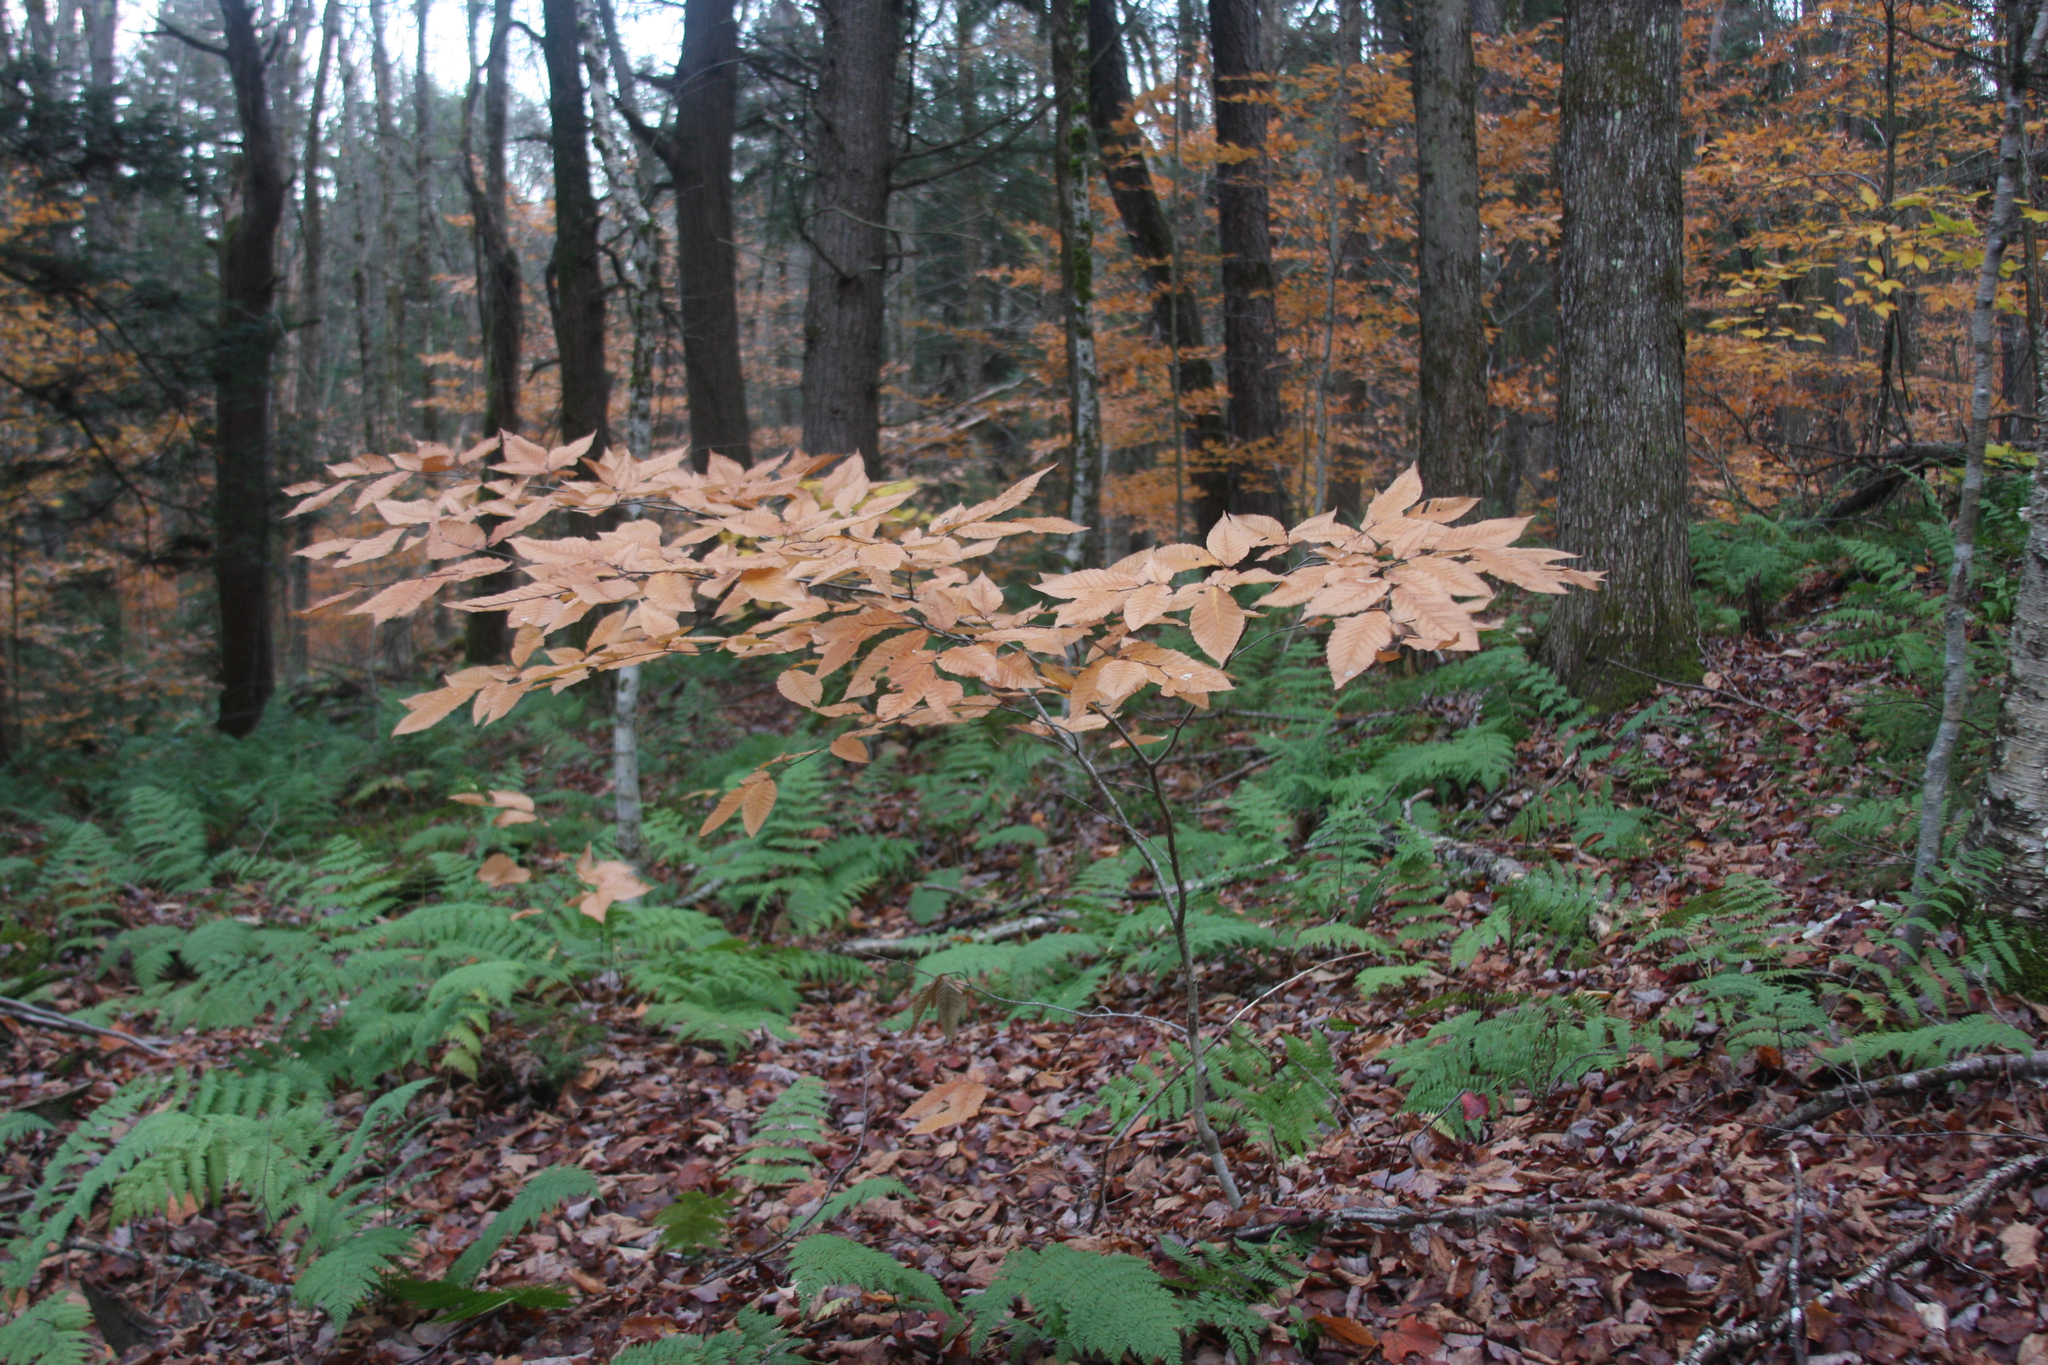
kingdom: Plantae
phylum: Tracheophyta
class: Magnoliopsida
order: Fagales
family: Fagaceae
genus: Fagus
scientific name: Fagus grandifolia
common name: American beech
